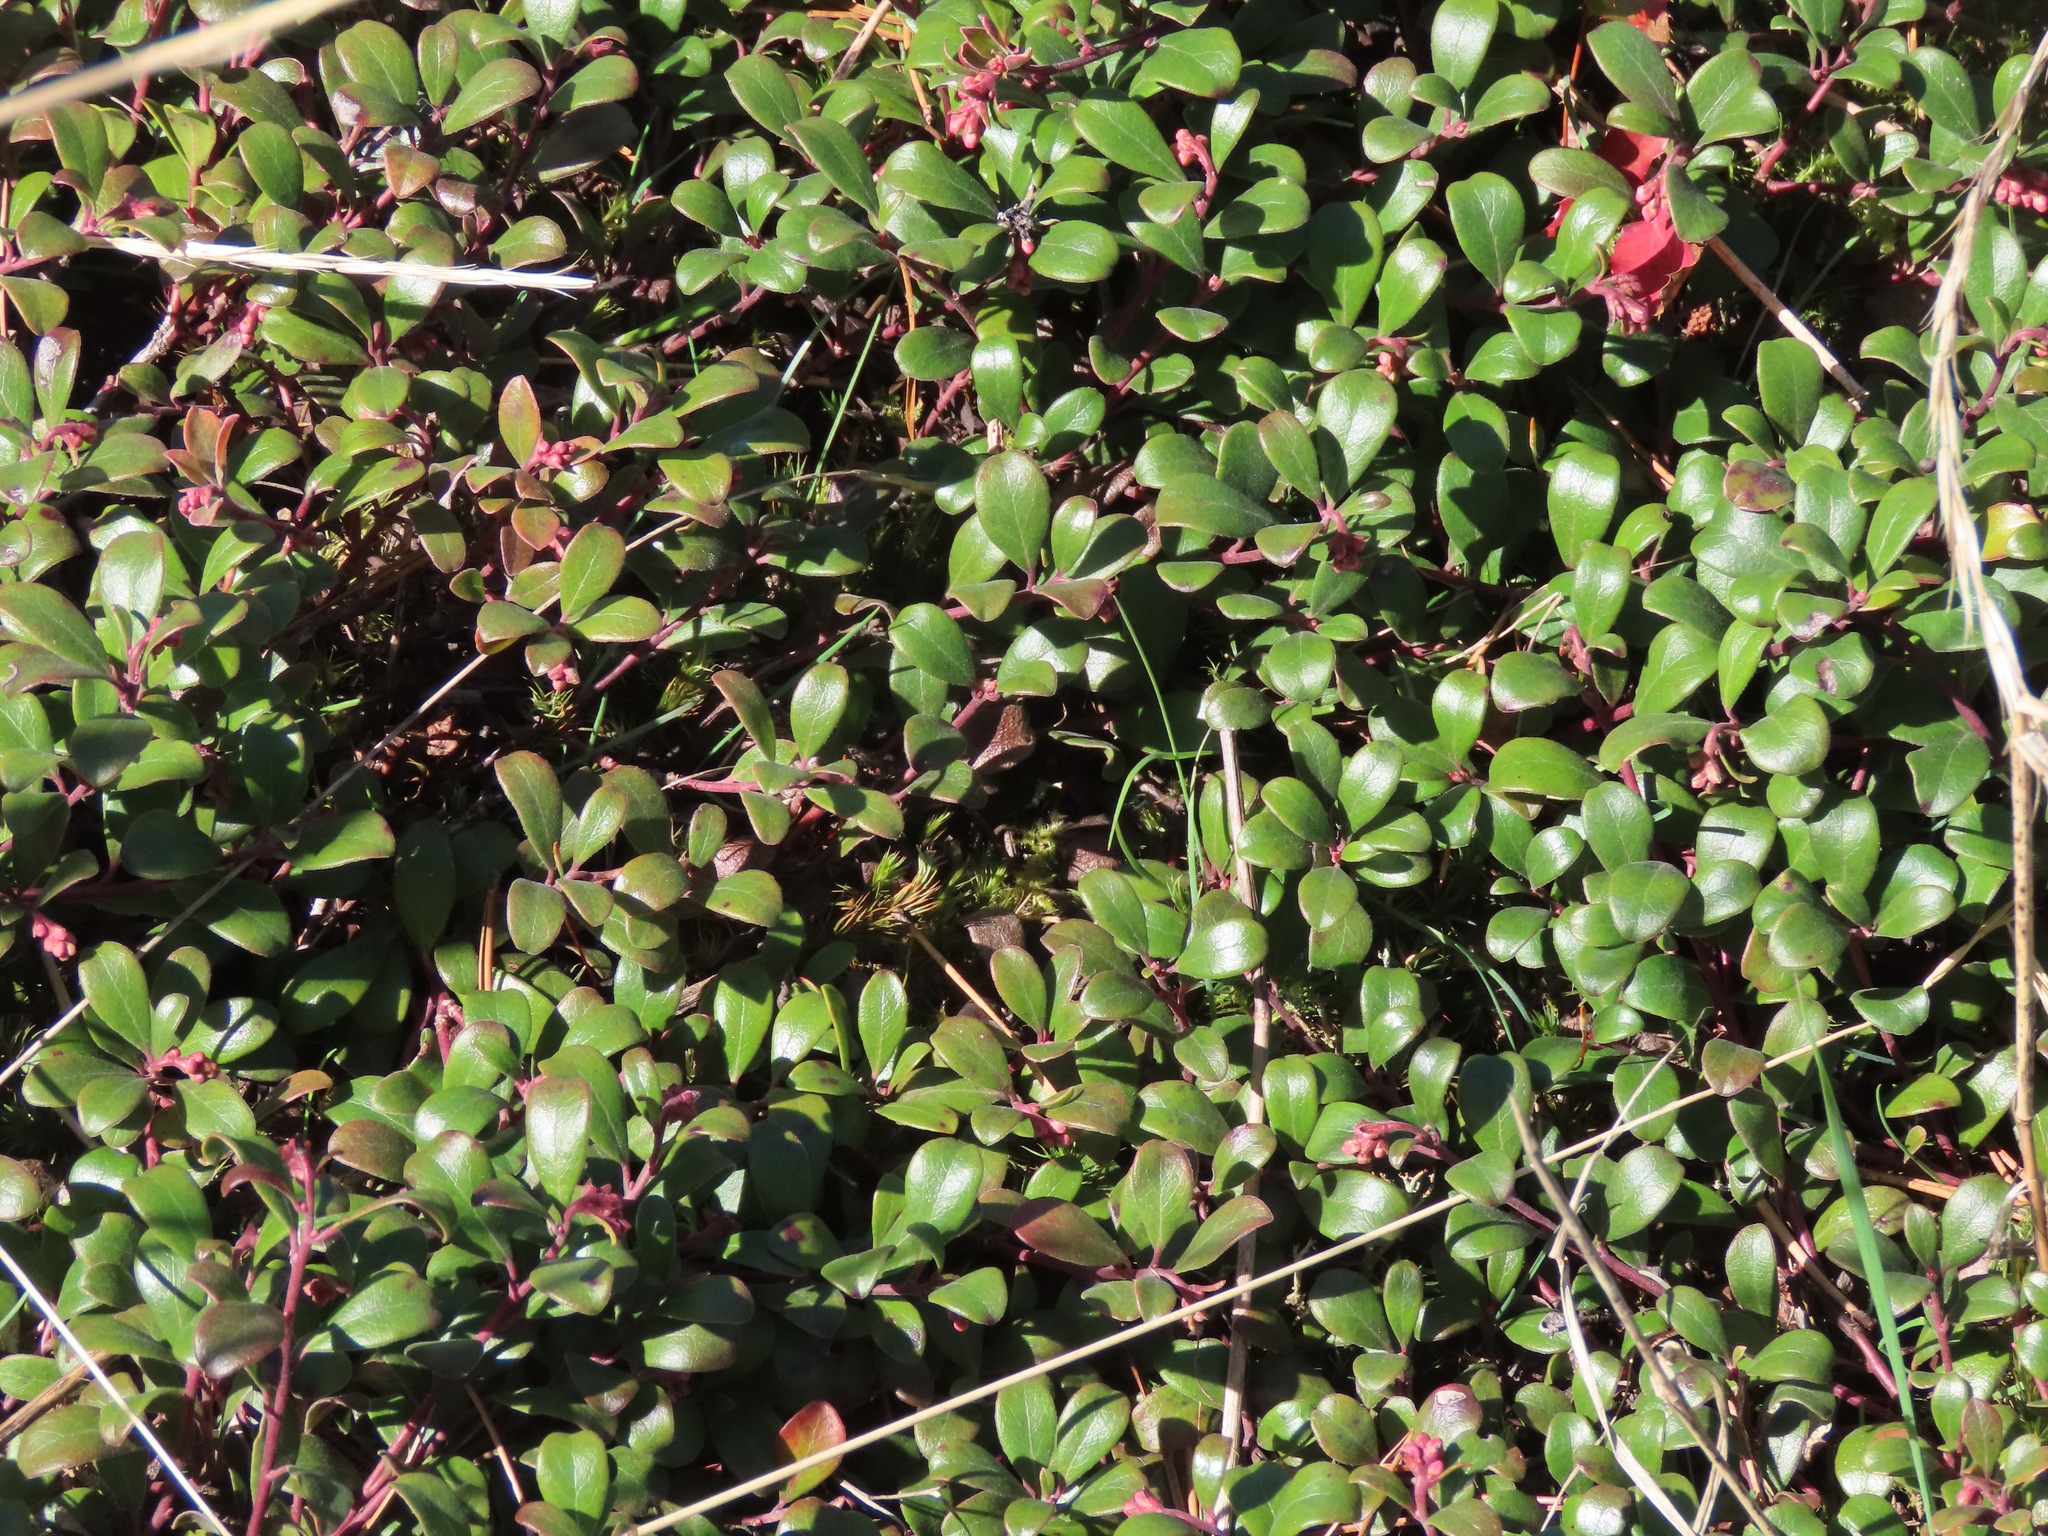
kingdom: Plantae
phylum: Tracheophyta
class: Magnoliopsida
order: Ericales
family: Ericaceae
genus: Arctostaphylos
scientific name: Arctostaphylos uva-ursi
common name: Bearberry
